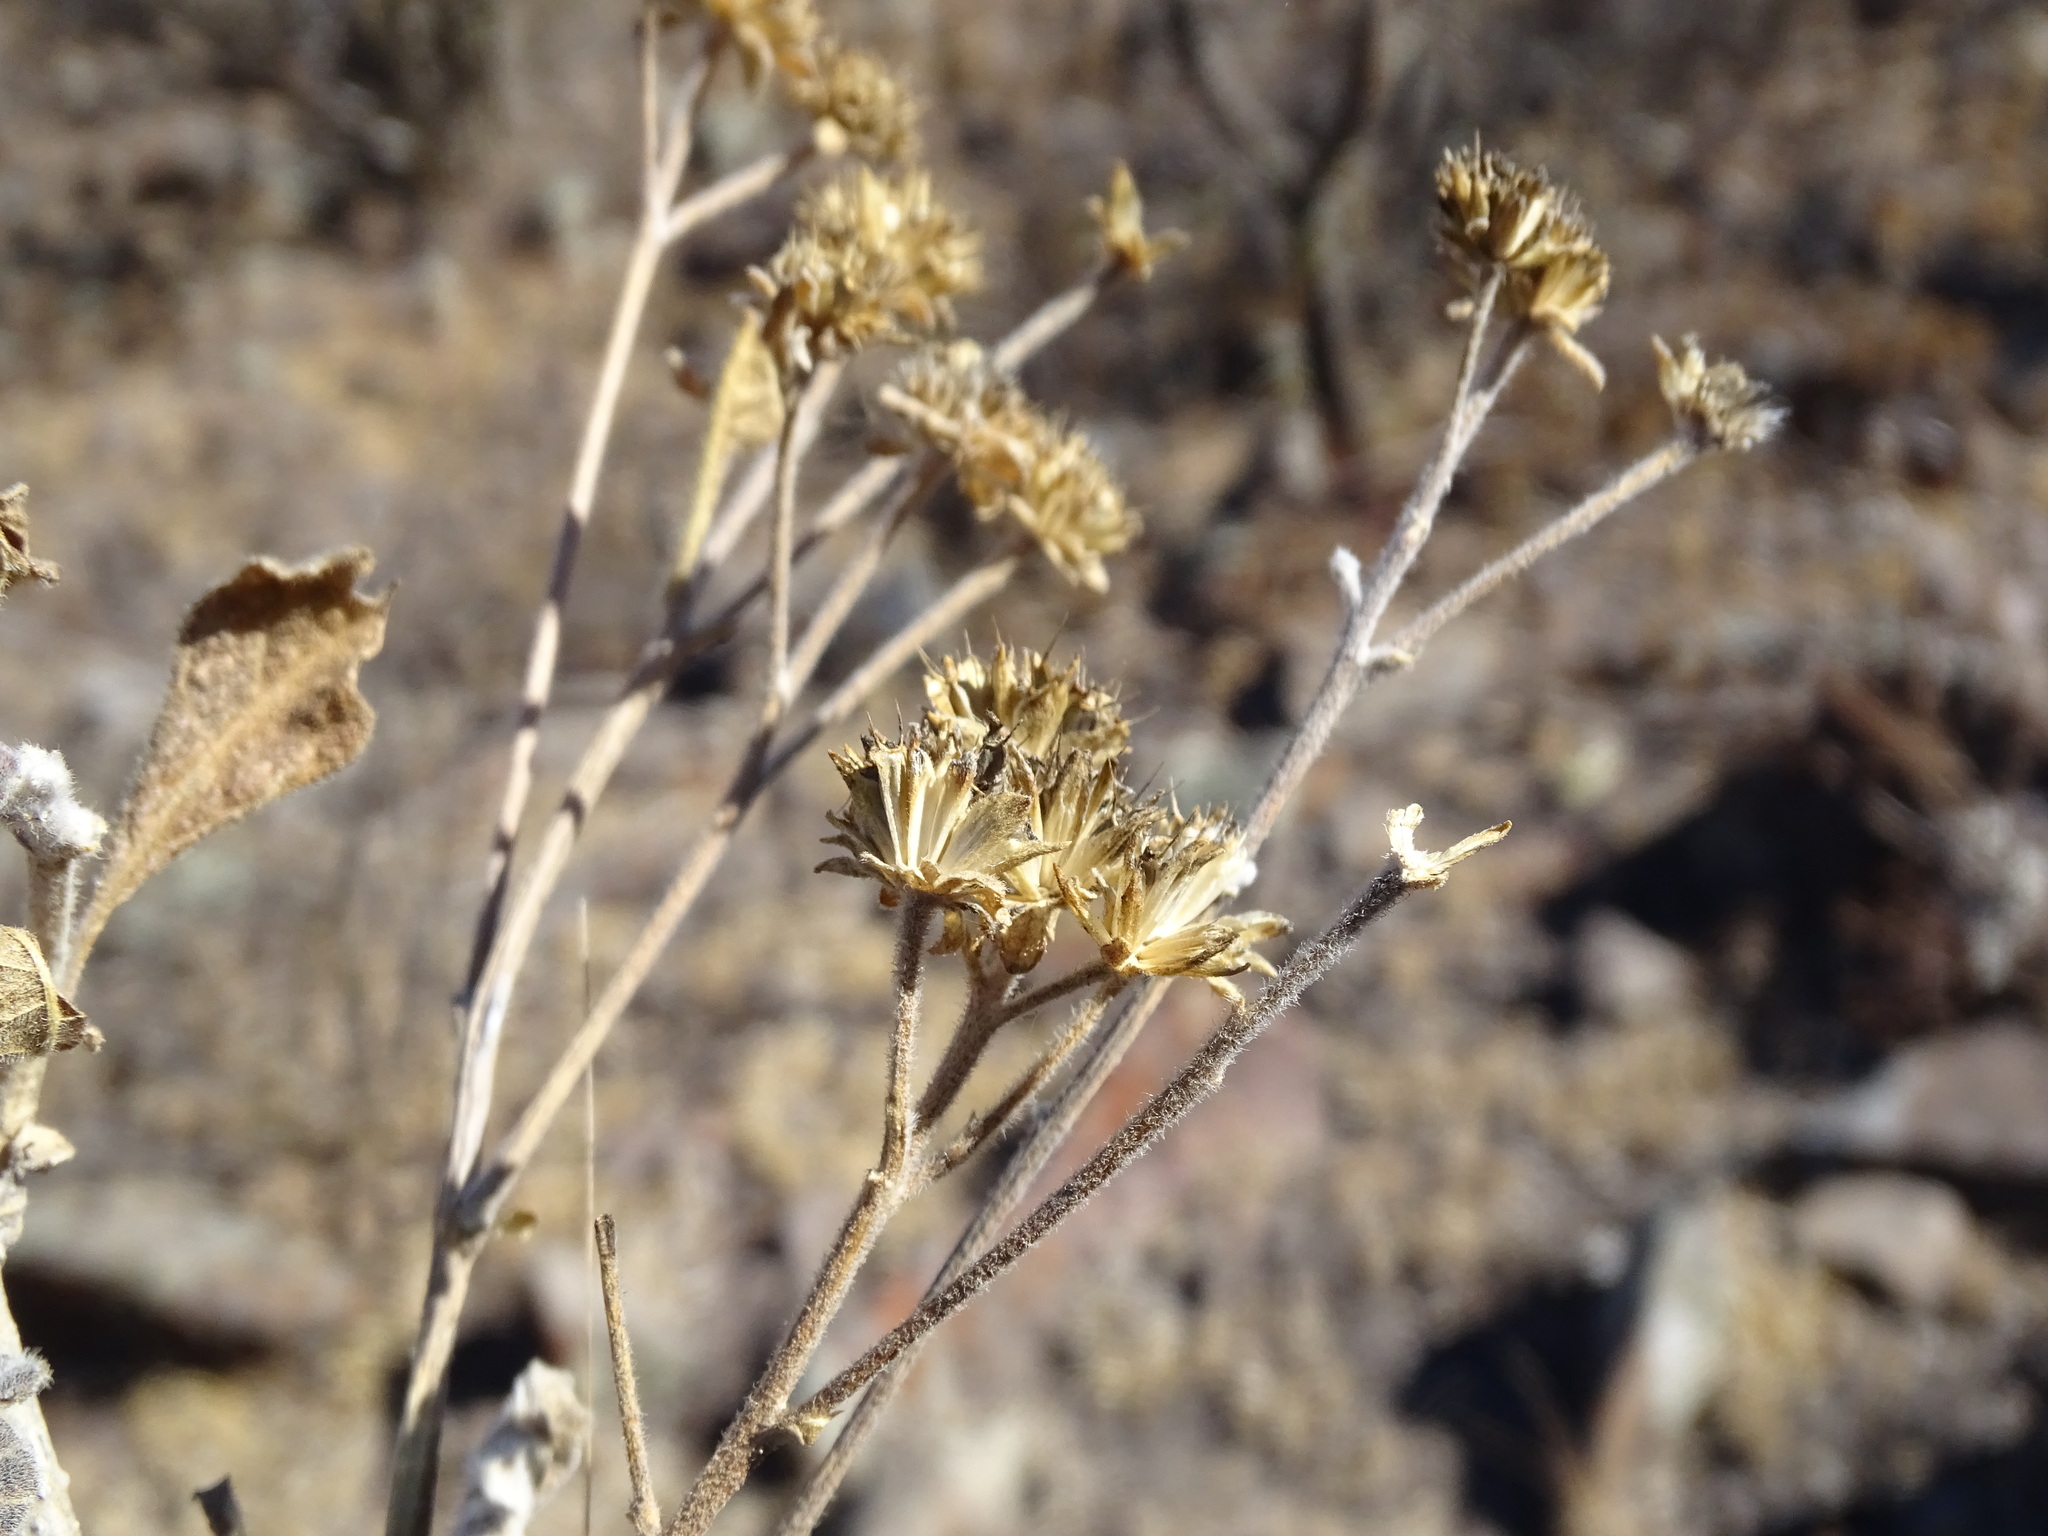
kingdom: Plantae
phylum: Tracheophyta
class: Magnoliopsida
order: Asterales
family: Asteraceae
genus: Verbesina
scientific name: Verbesina serrata
